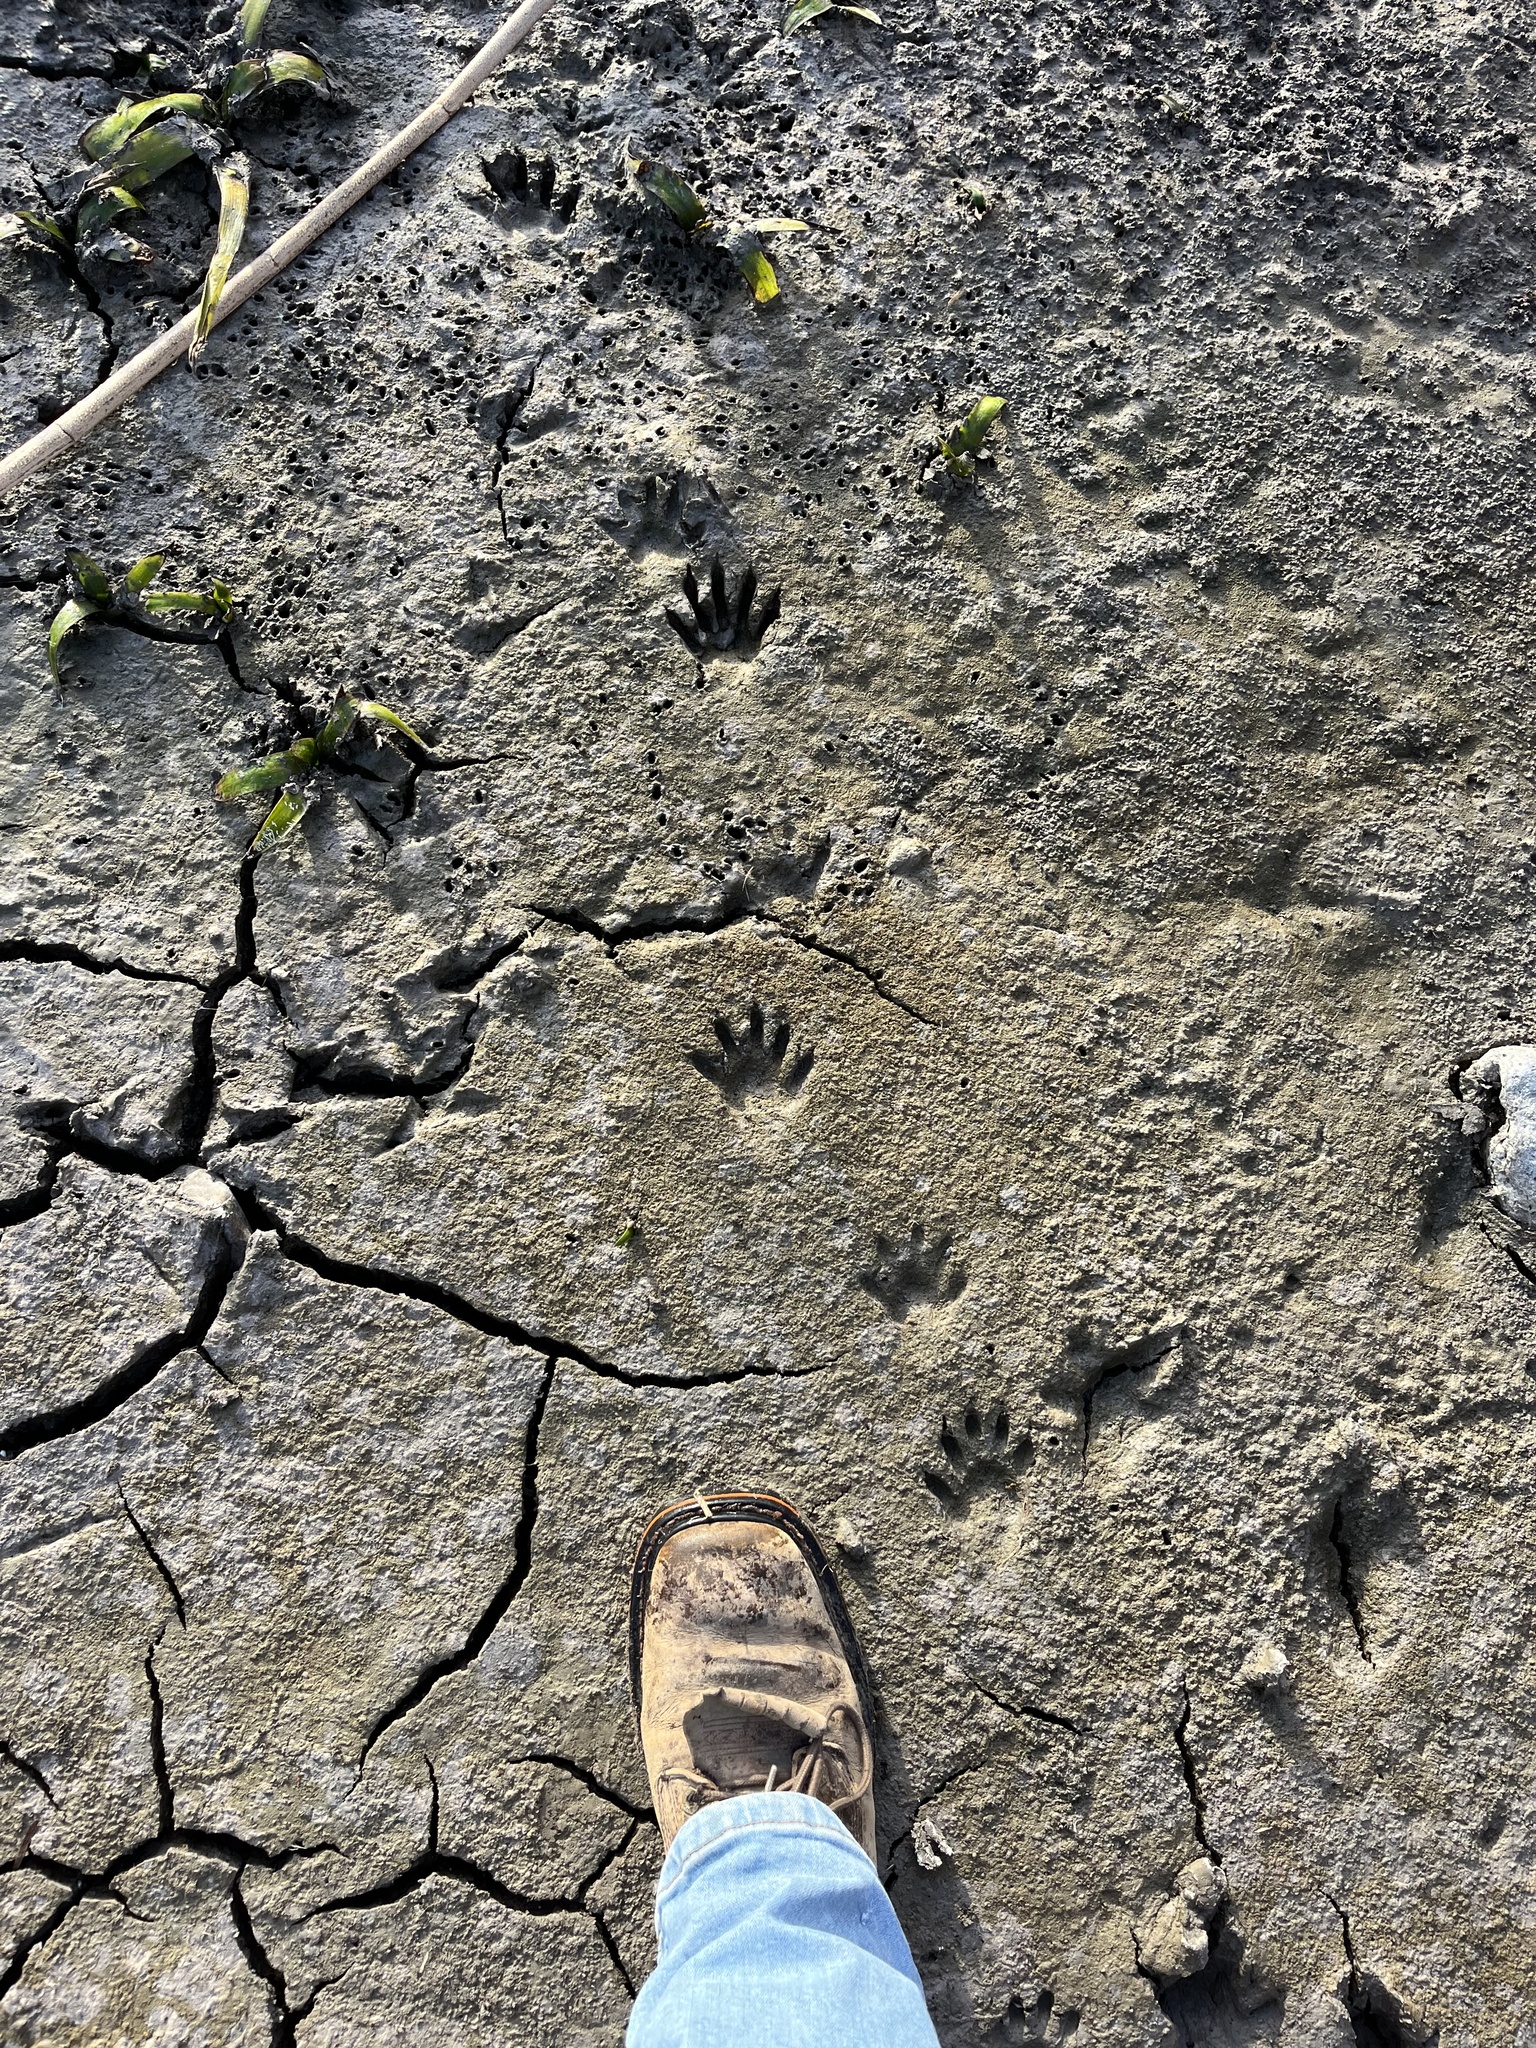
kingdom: Animalia
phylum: Chordata
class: Mammalia
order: Carnivora
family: Procyonidae
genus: Procyon
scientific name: Procyon lotor
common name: Raccoon
